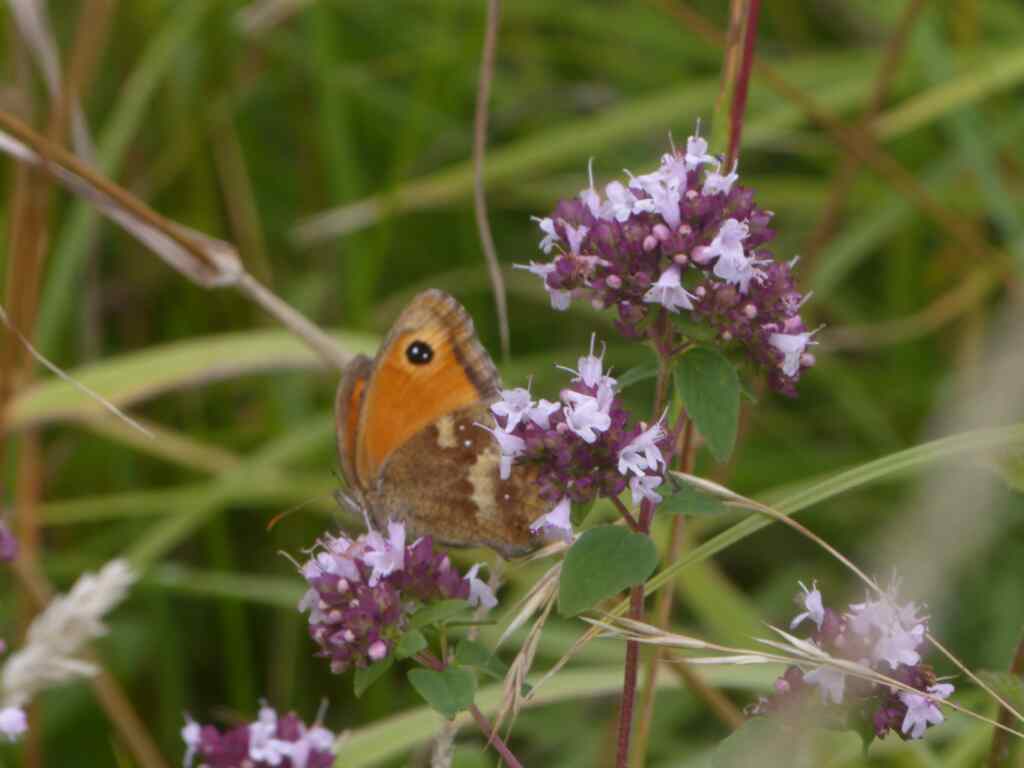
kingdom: Animalia
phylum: Arthropoda
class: Insecta
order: Lepidoptera
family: Nymphalidae
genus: Pyronia
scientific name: Pyronia tithonus
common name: Gatekeeper
